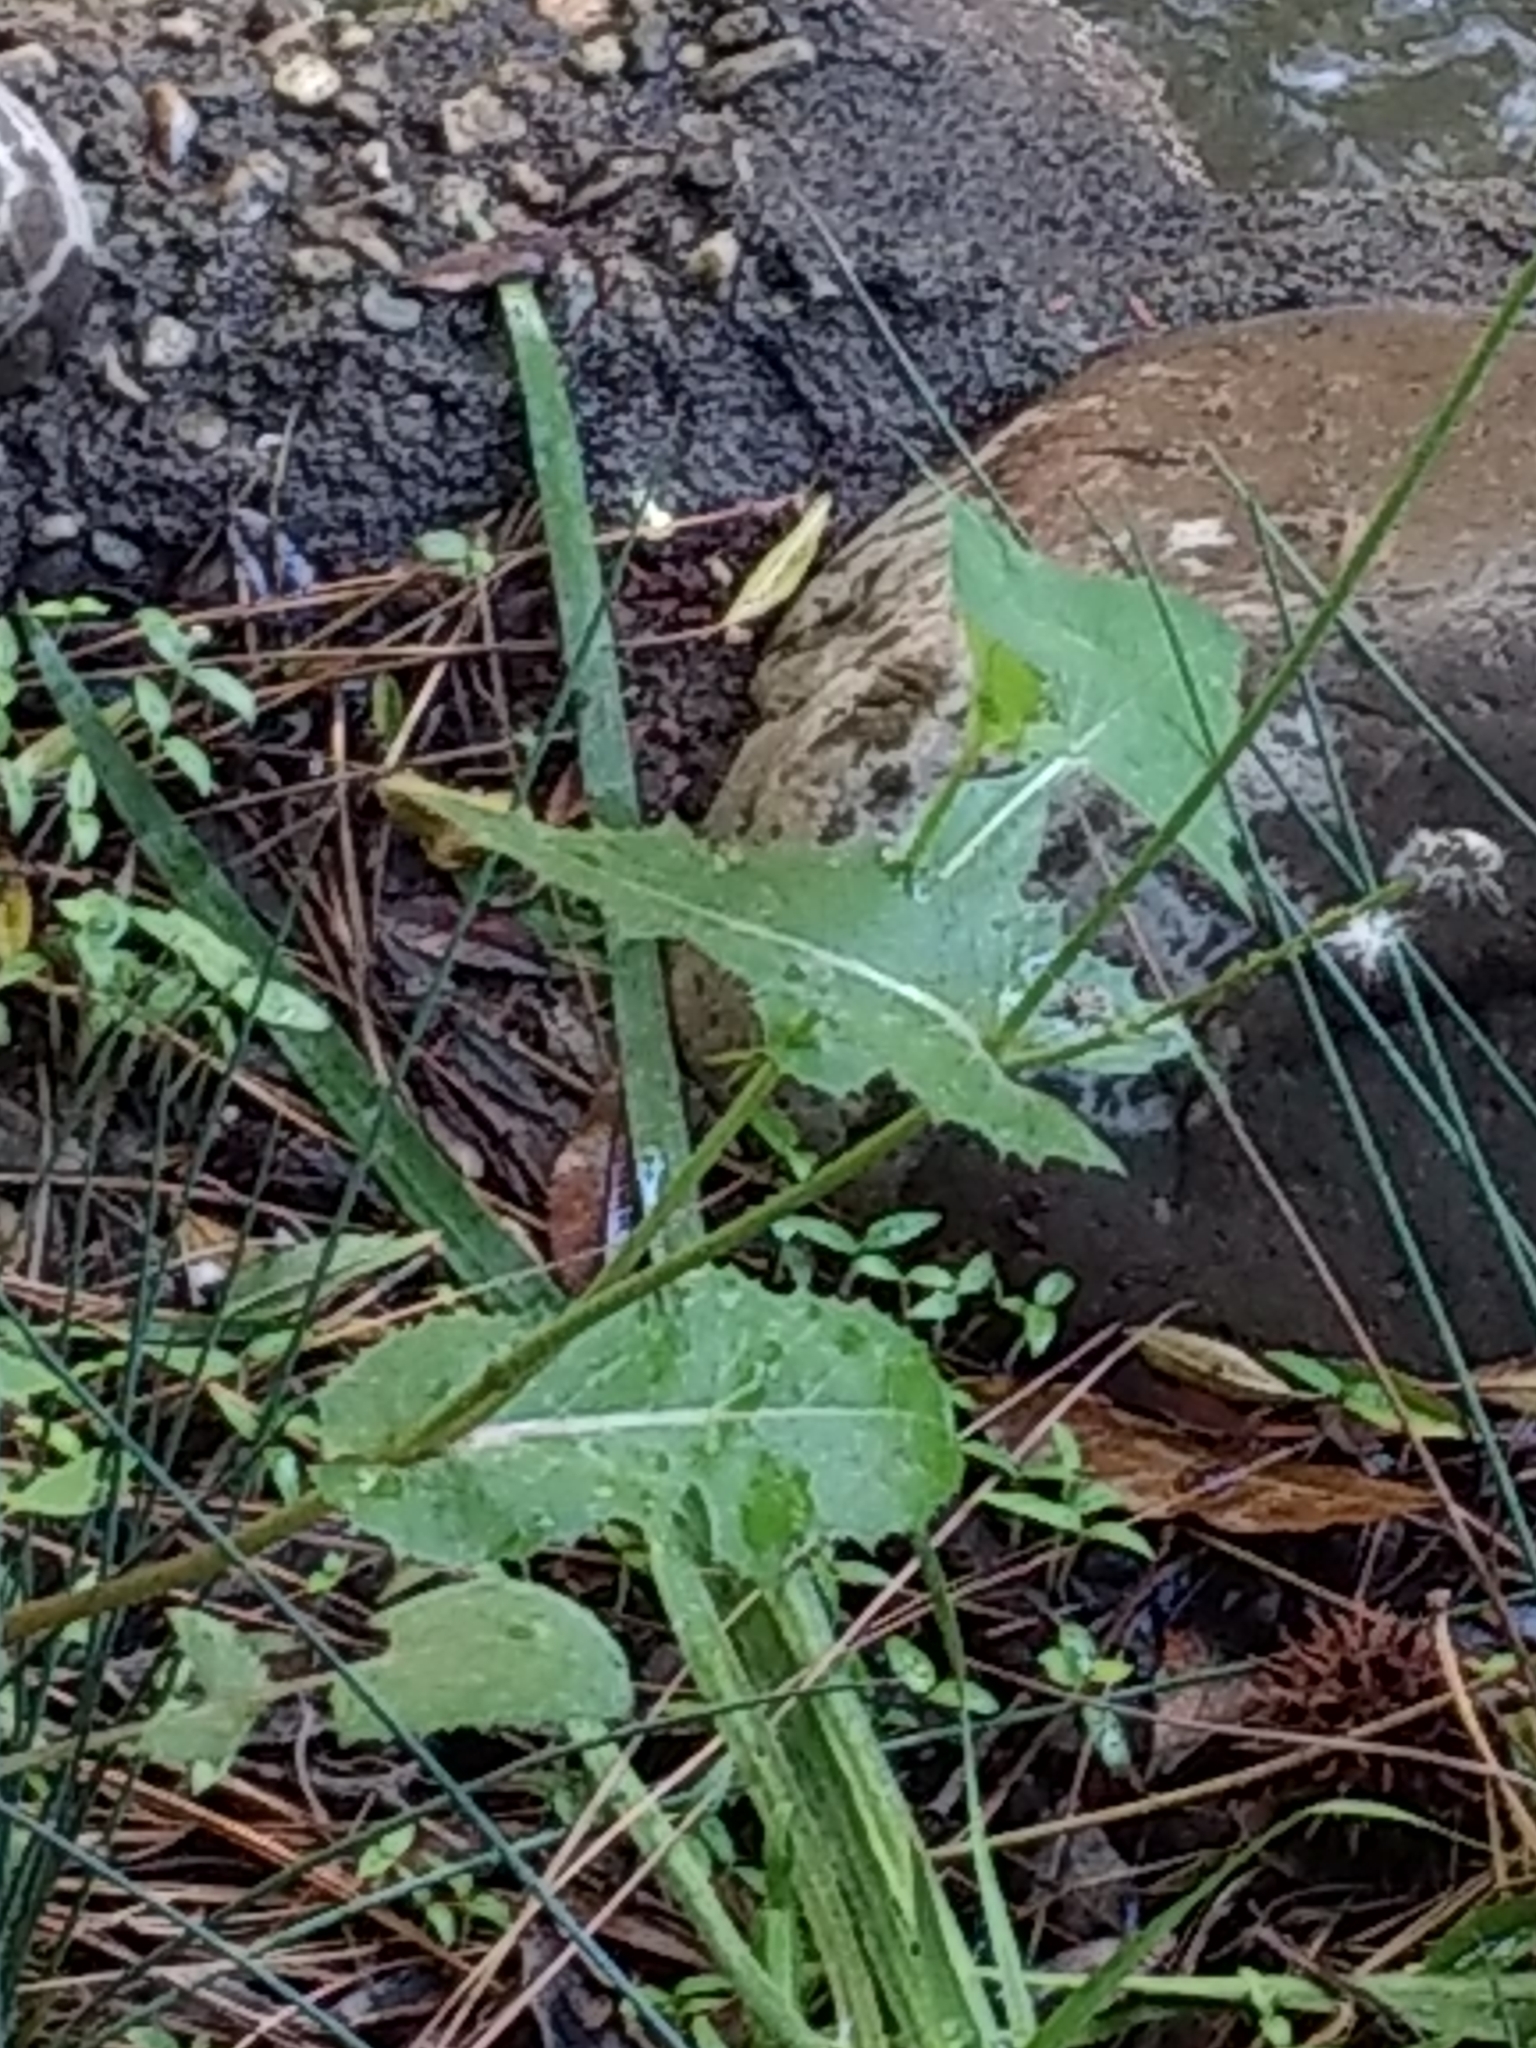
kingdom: Plantae
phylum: Tracheophyta
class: Magnoliopsida
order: Asterales
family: Asteraceae
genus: Sonchus
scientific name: Sonchus oleraceus
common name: Common sowthistle
